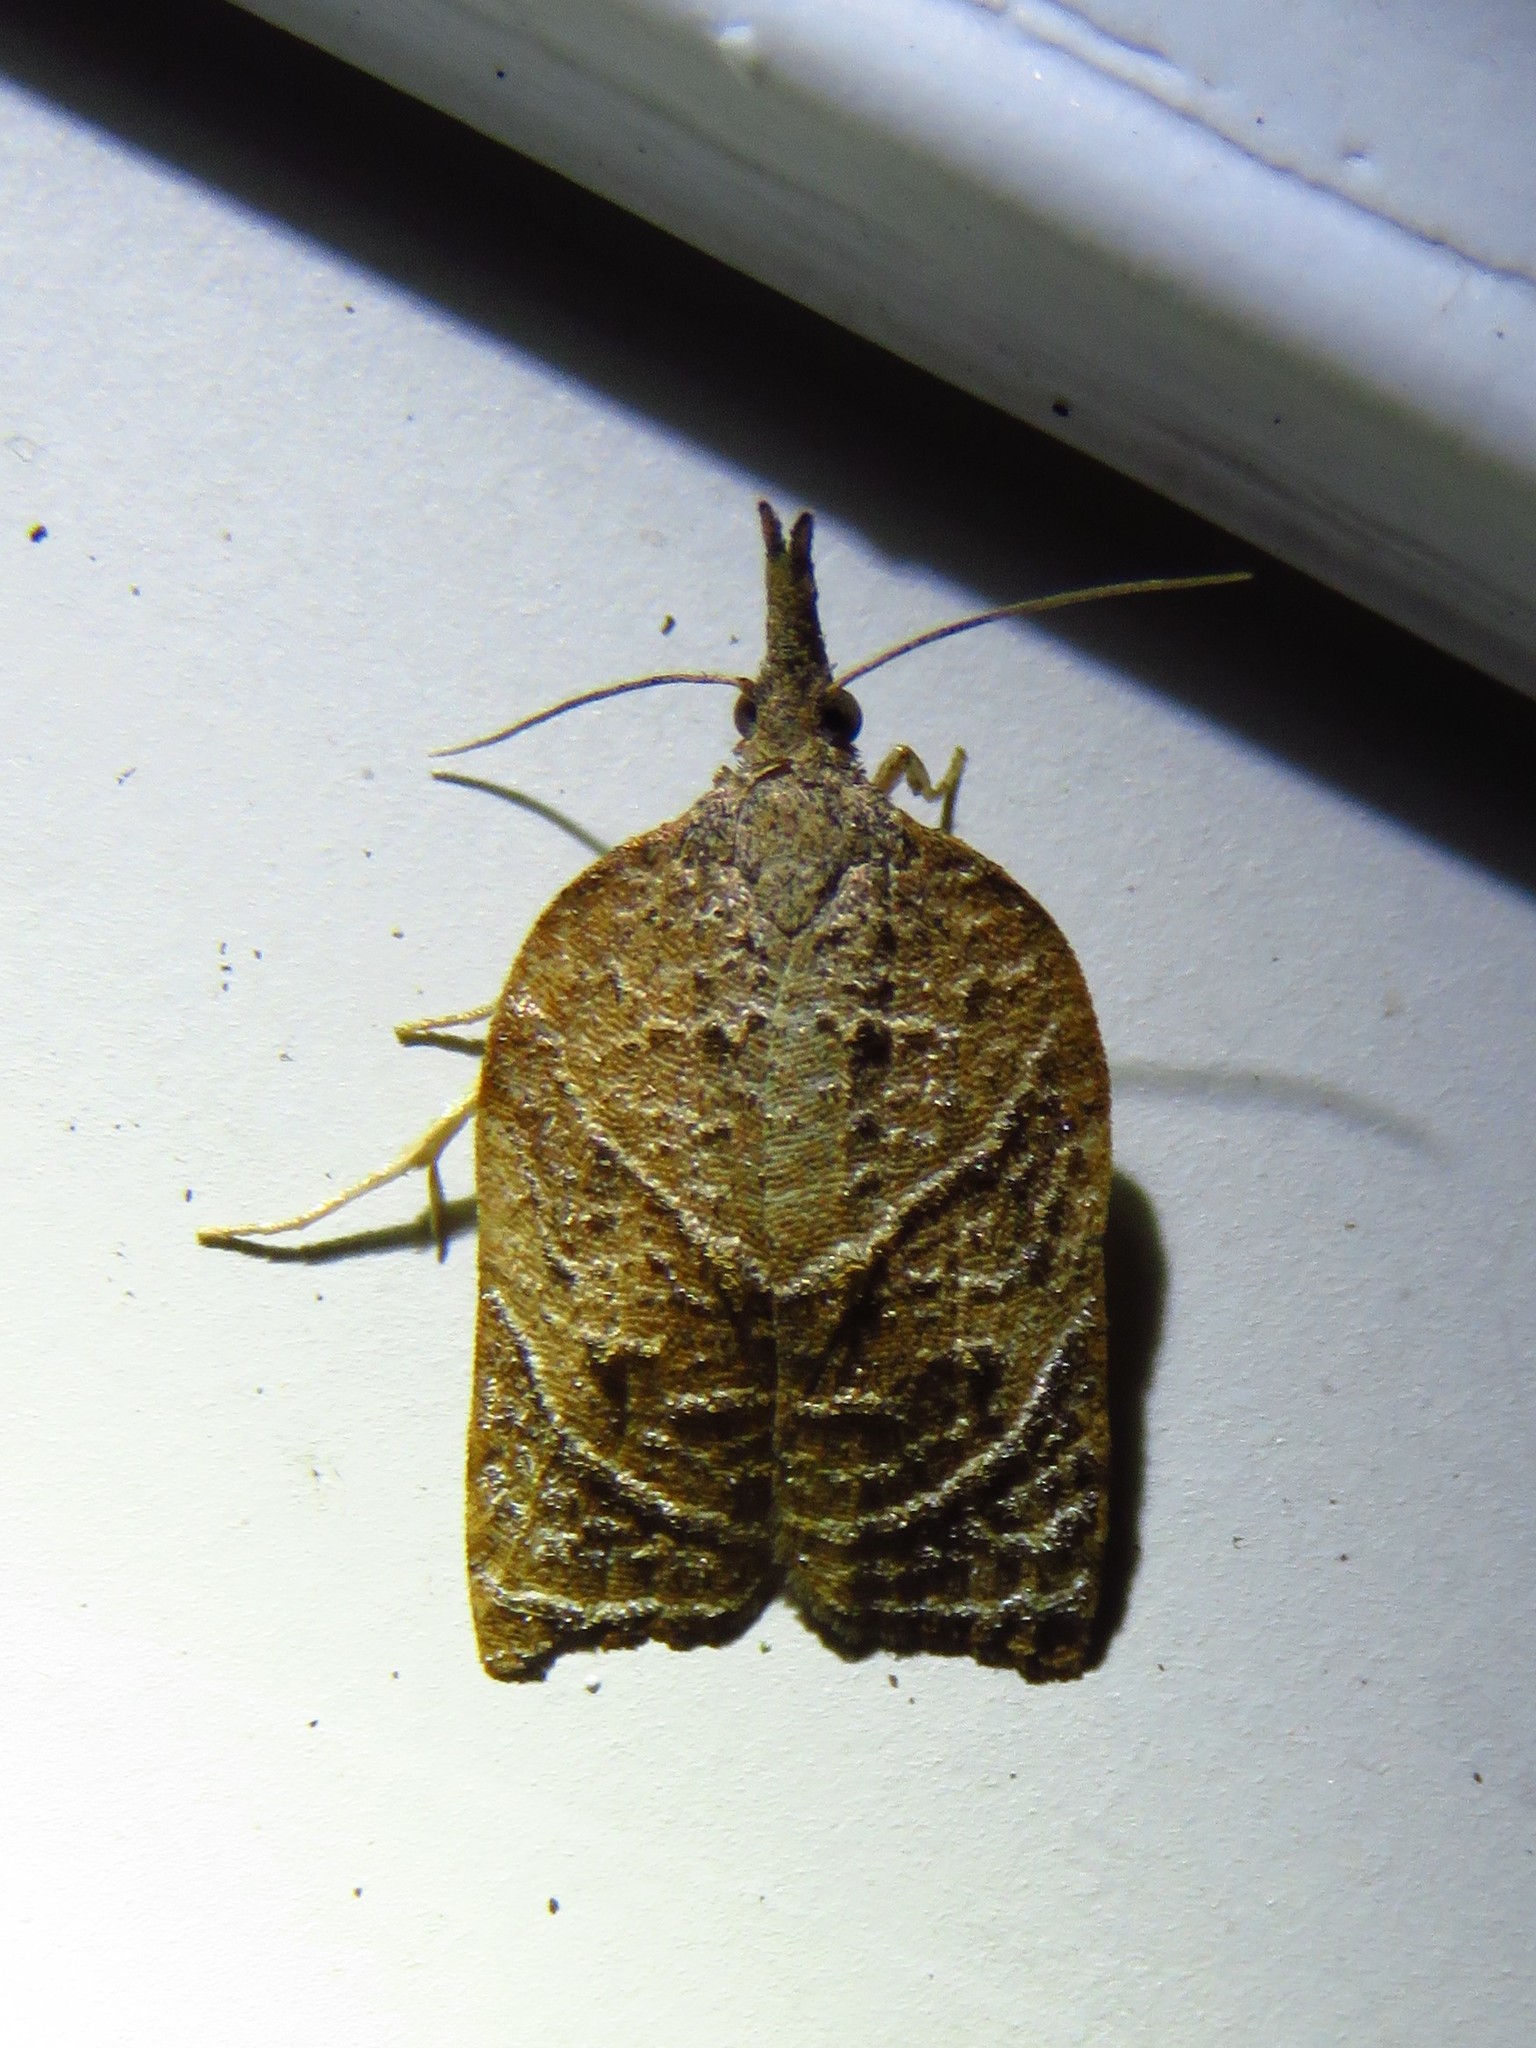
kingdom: Animalia
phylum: Arthropoda
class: Insecta
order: Lepidoptera
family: Tortricidae
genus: Platynota
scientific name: Platynota rostrana
